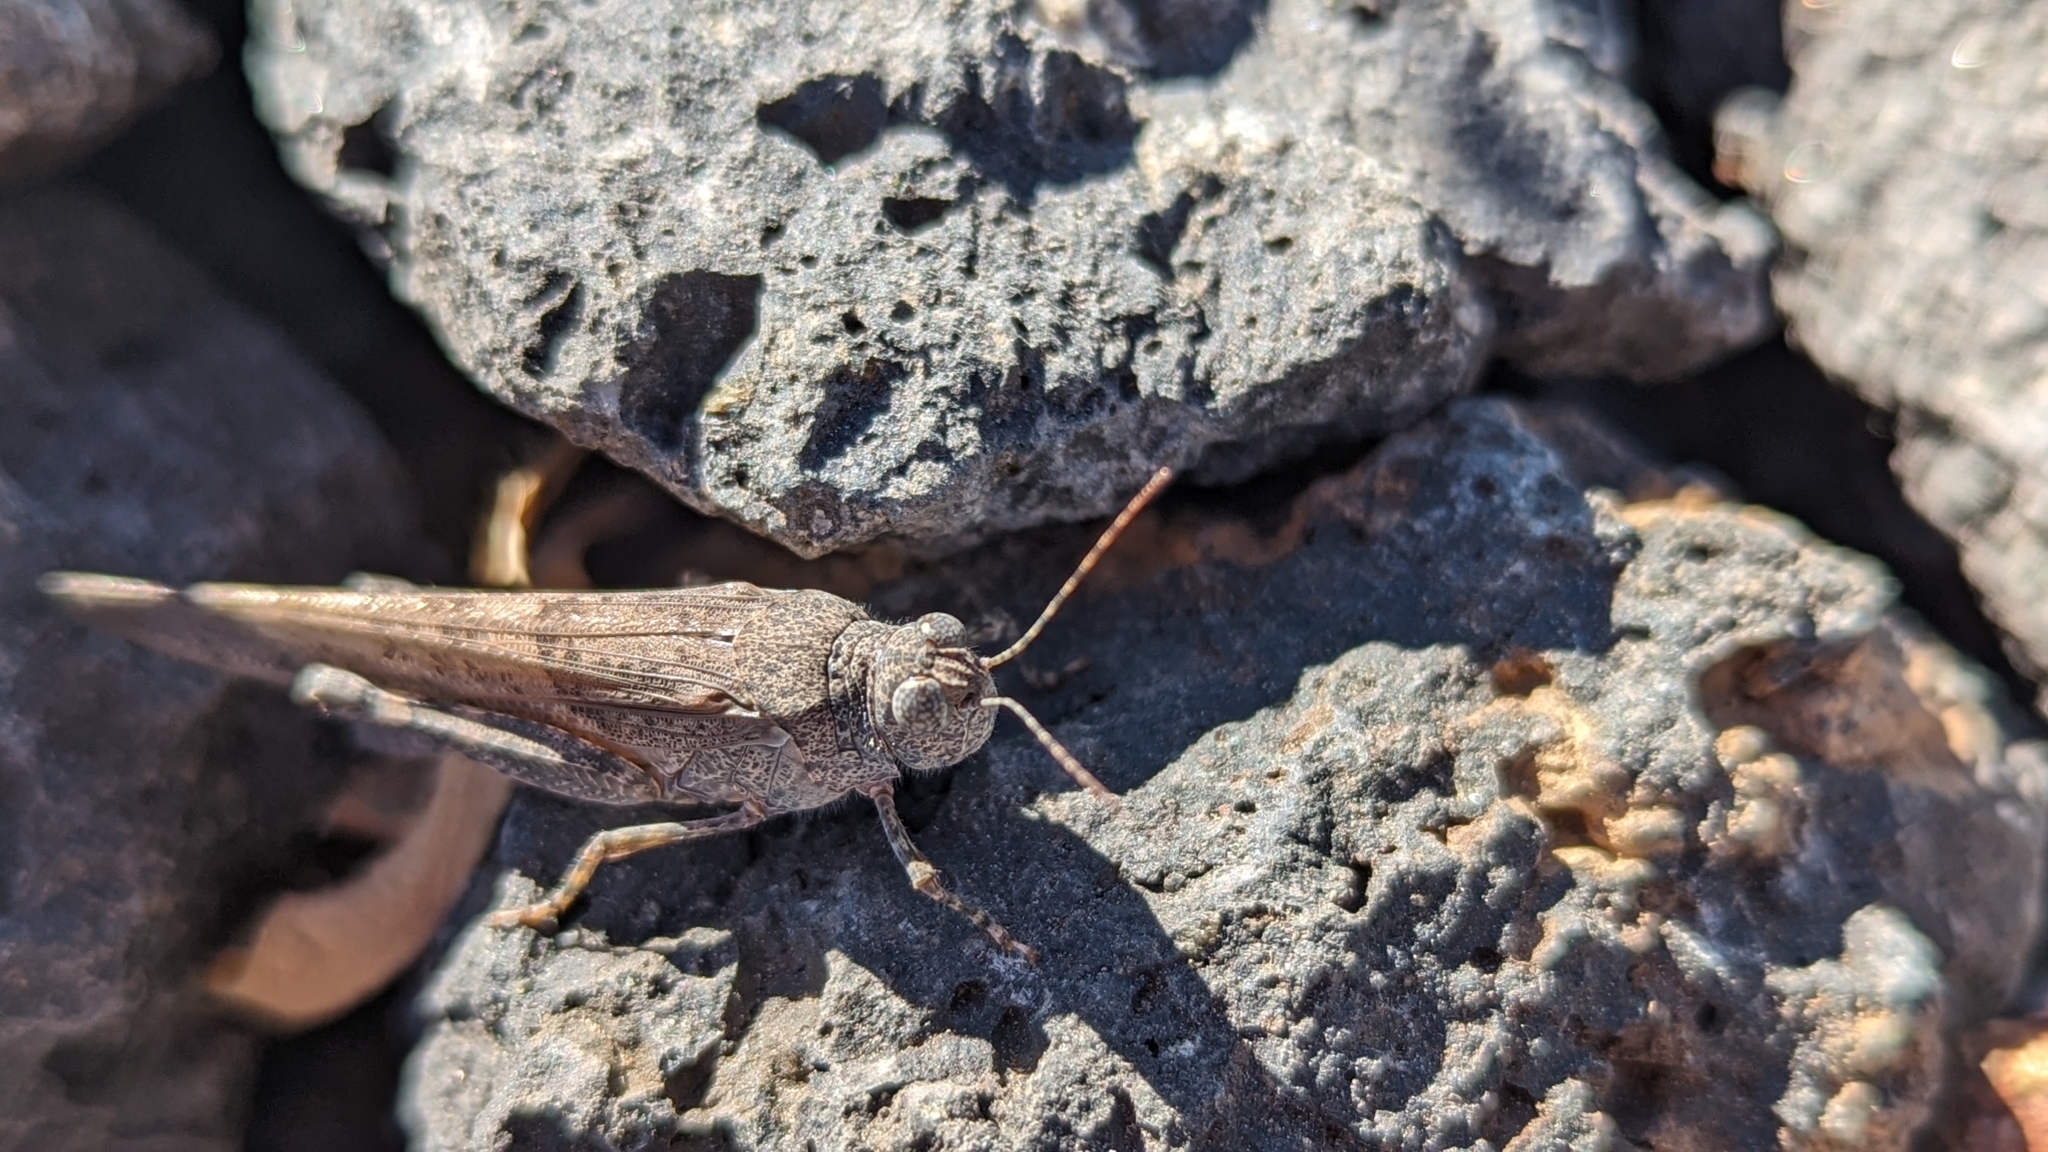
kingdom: Animalia
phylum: Arthropoda
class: Insecta
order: Orthoptera
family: Acrididae
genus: Sphingonotus
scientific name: Sphingonotus rubescens
